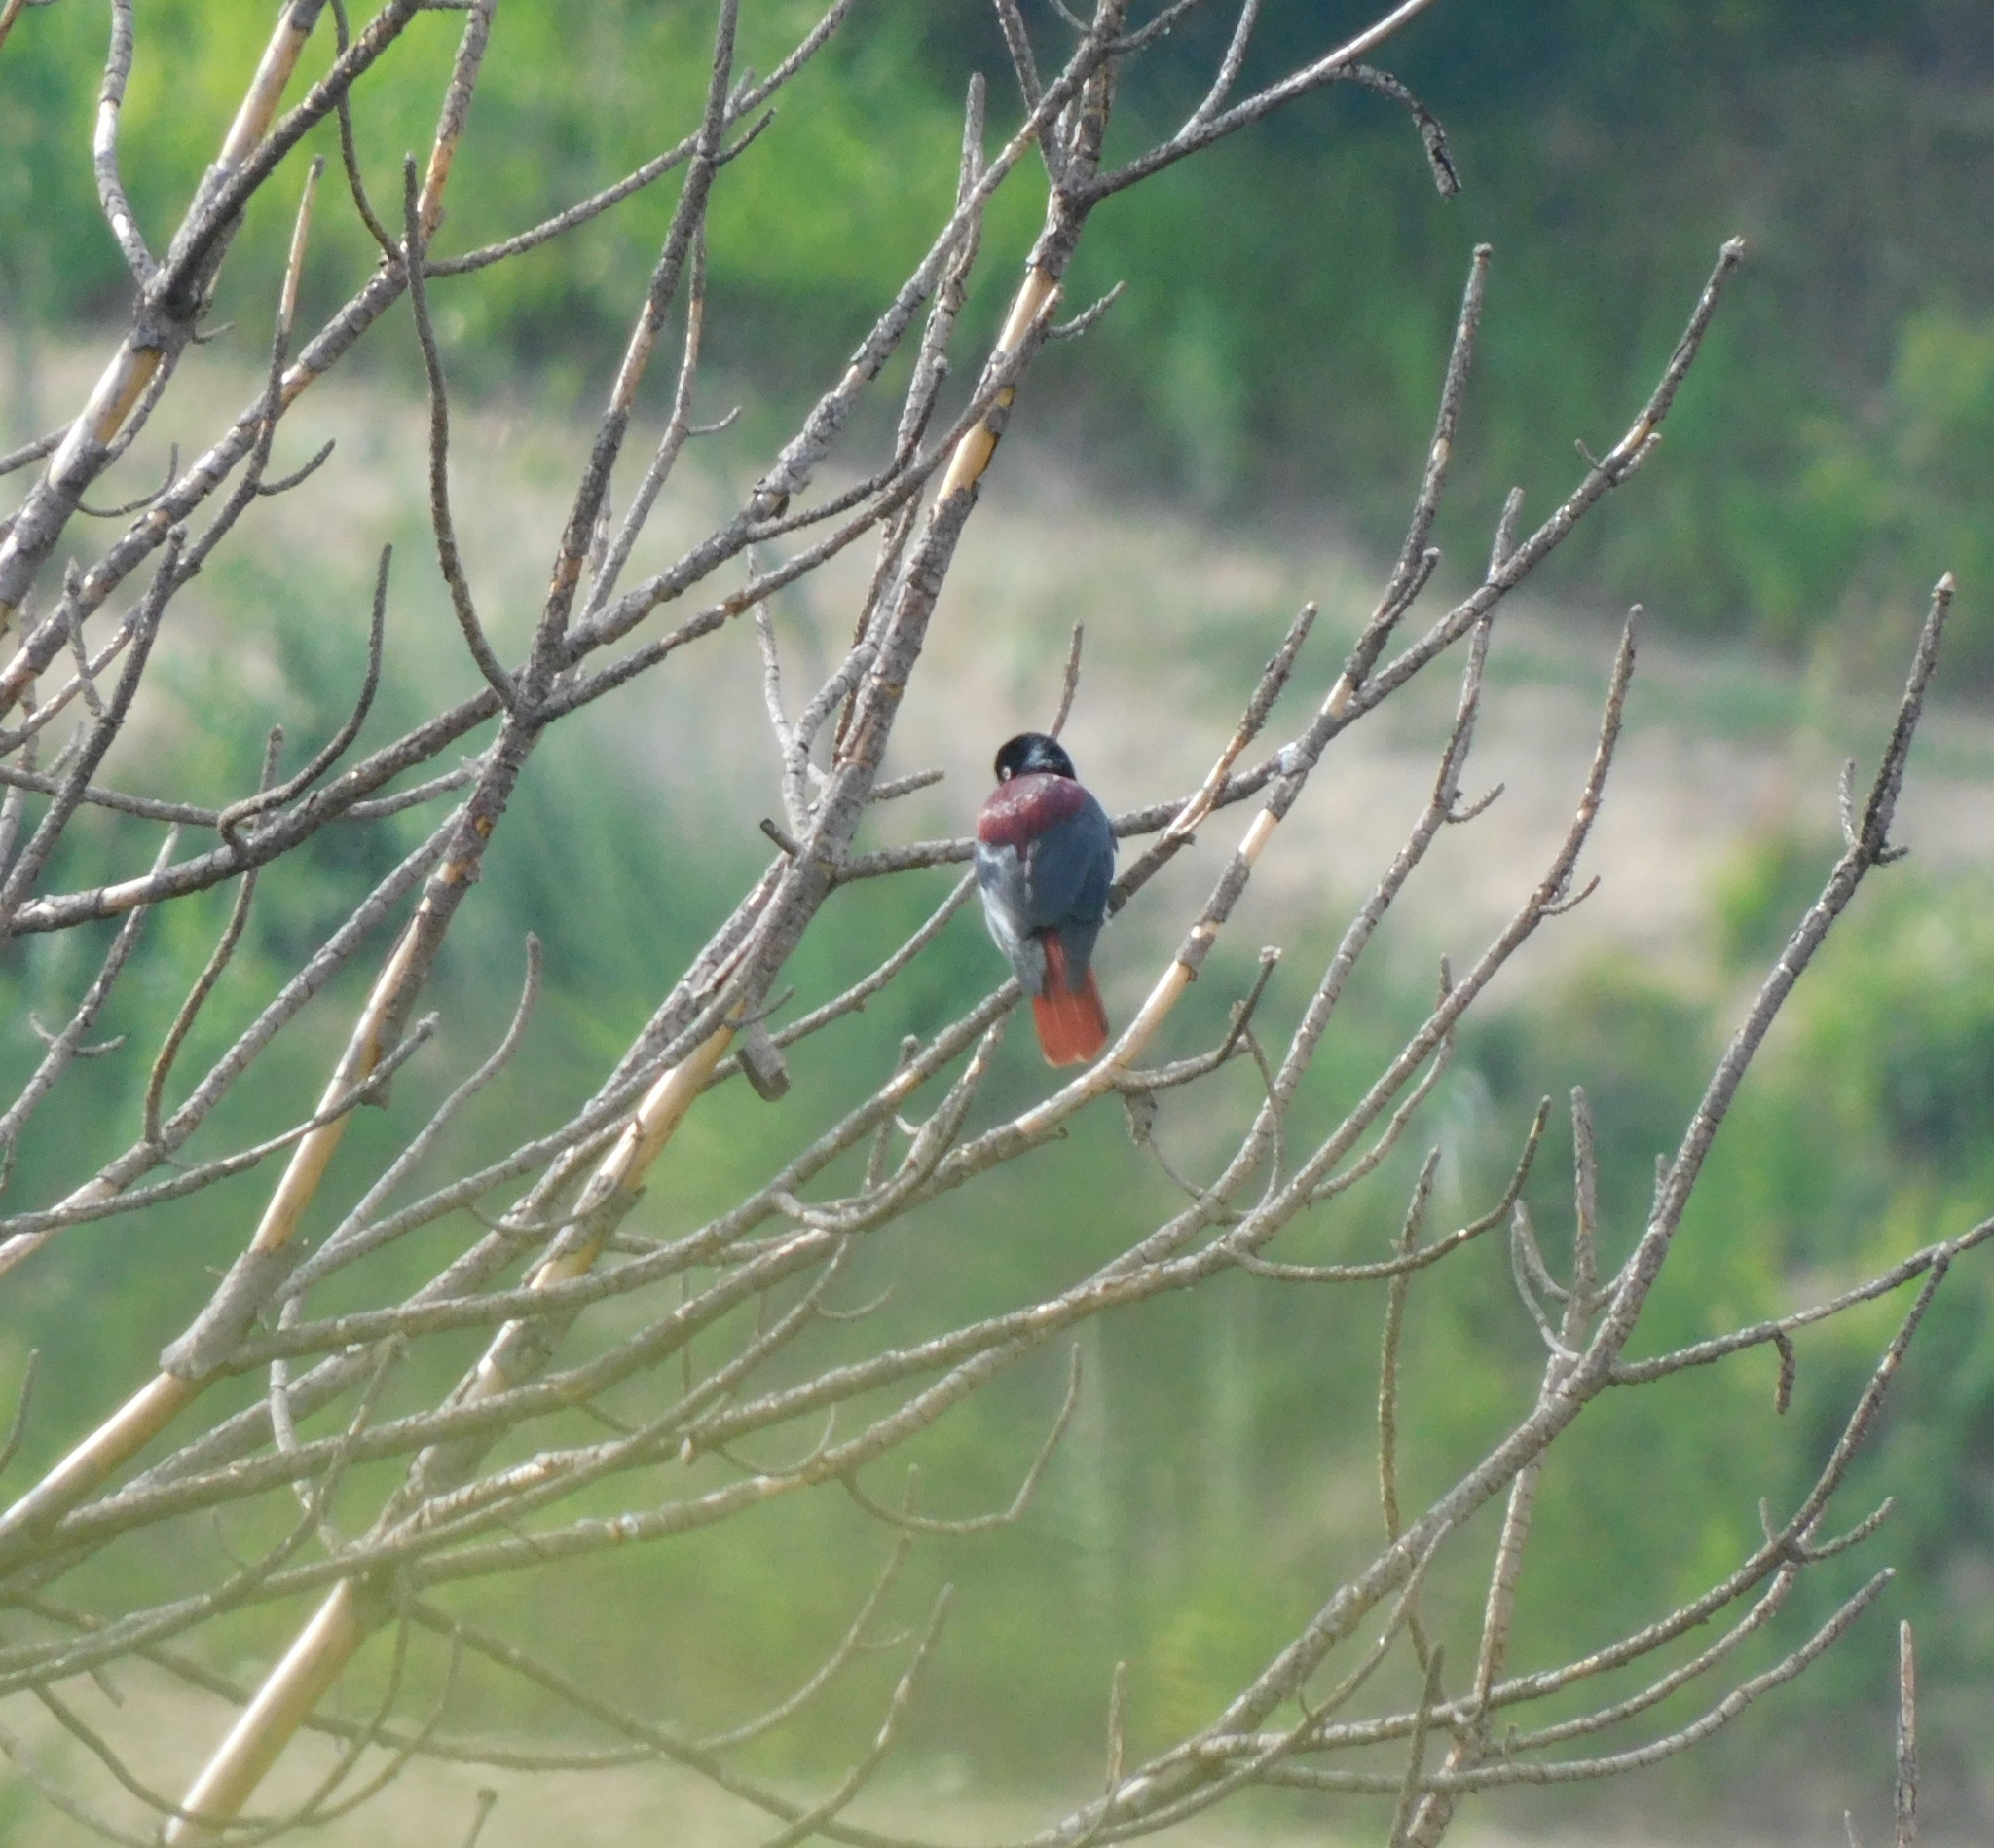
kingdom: Animalia
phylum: Chordata
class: Aves
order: Passeriformes
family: Oriolidae
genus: Oriolus
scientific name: Oriolus traillii
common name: Maroon oriole
